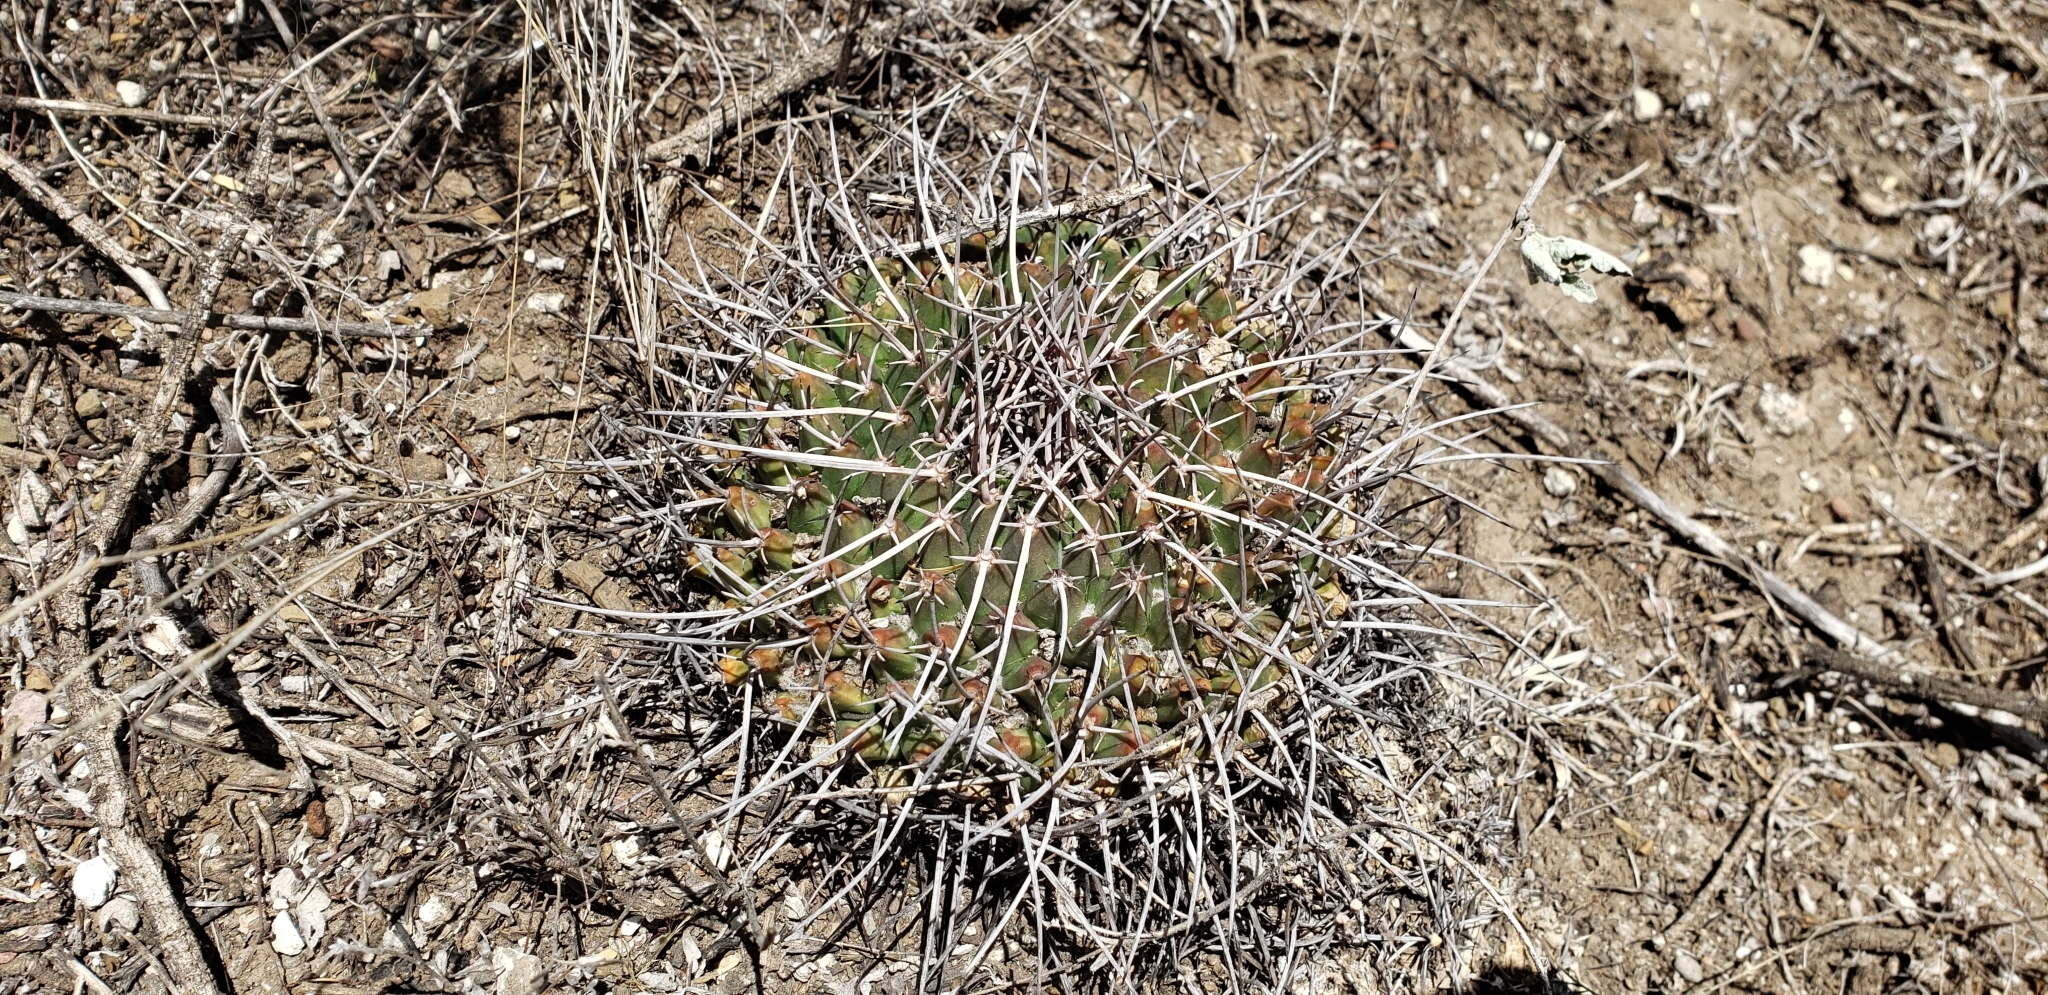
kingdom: Plantae
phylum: Tracheophyta
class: Magnoliopsida
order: Caryophyllales
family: Cactaceae
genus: Mammillaria
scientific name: Mammillaria magnimamma
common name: Mexican pincushion
